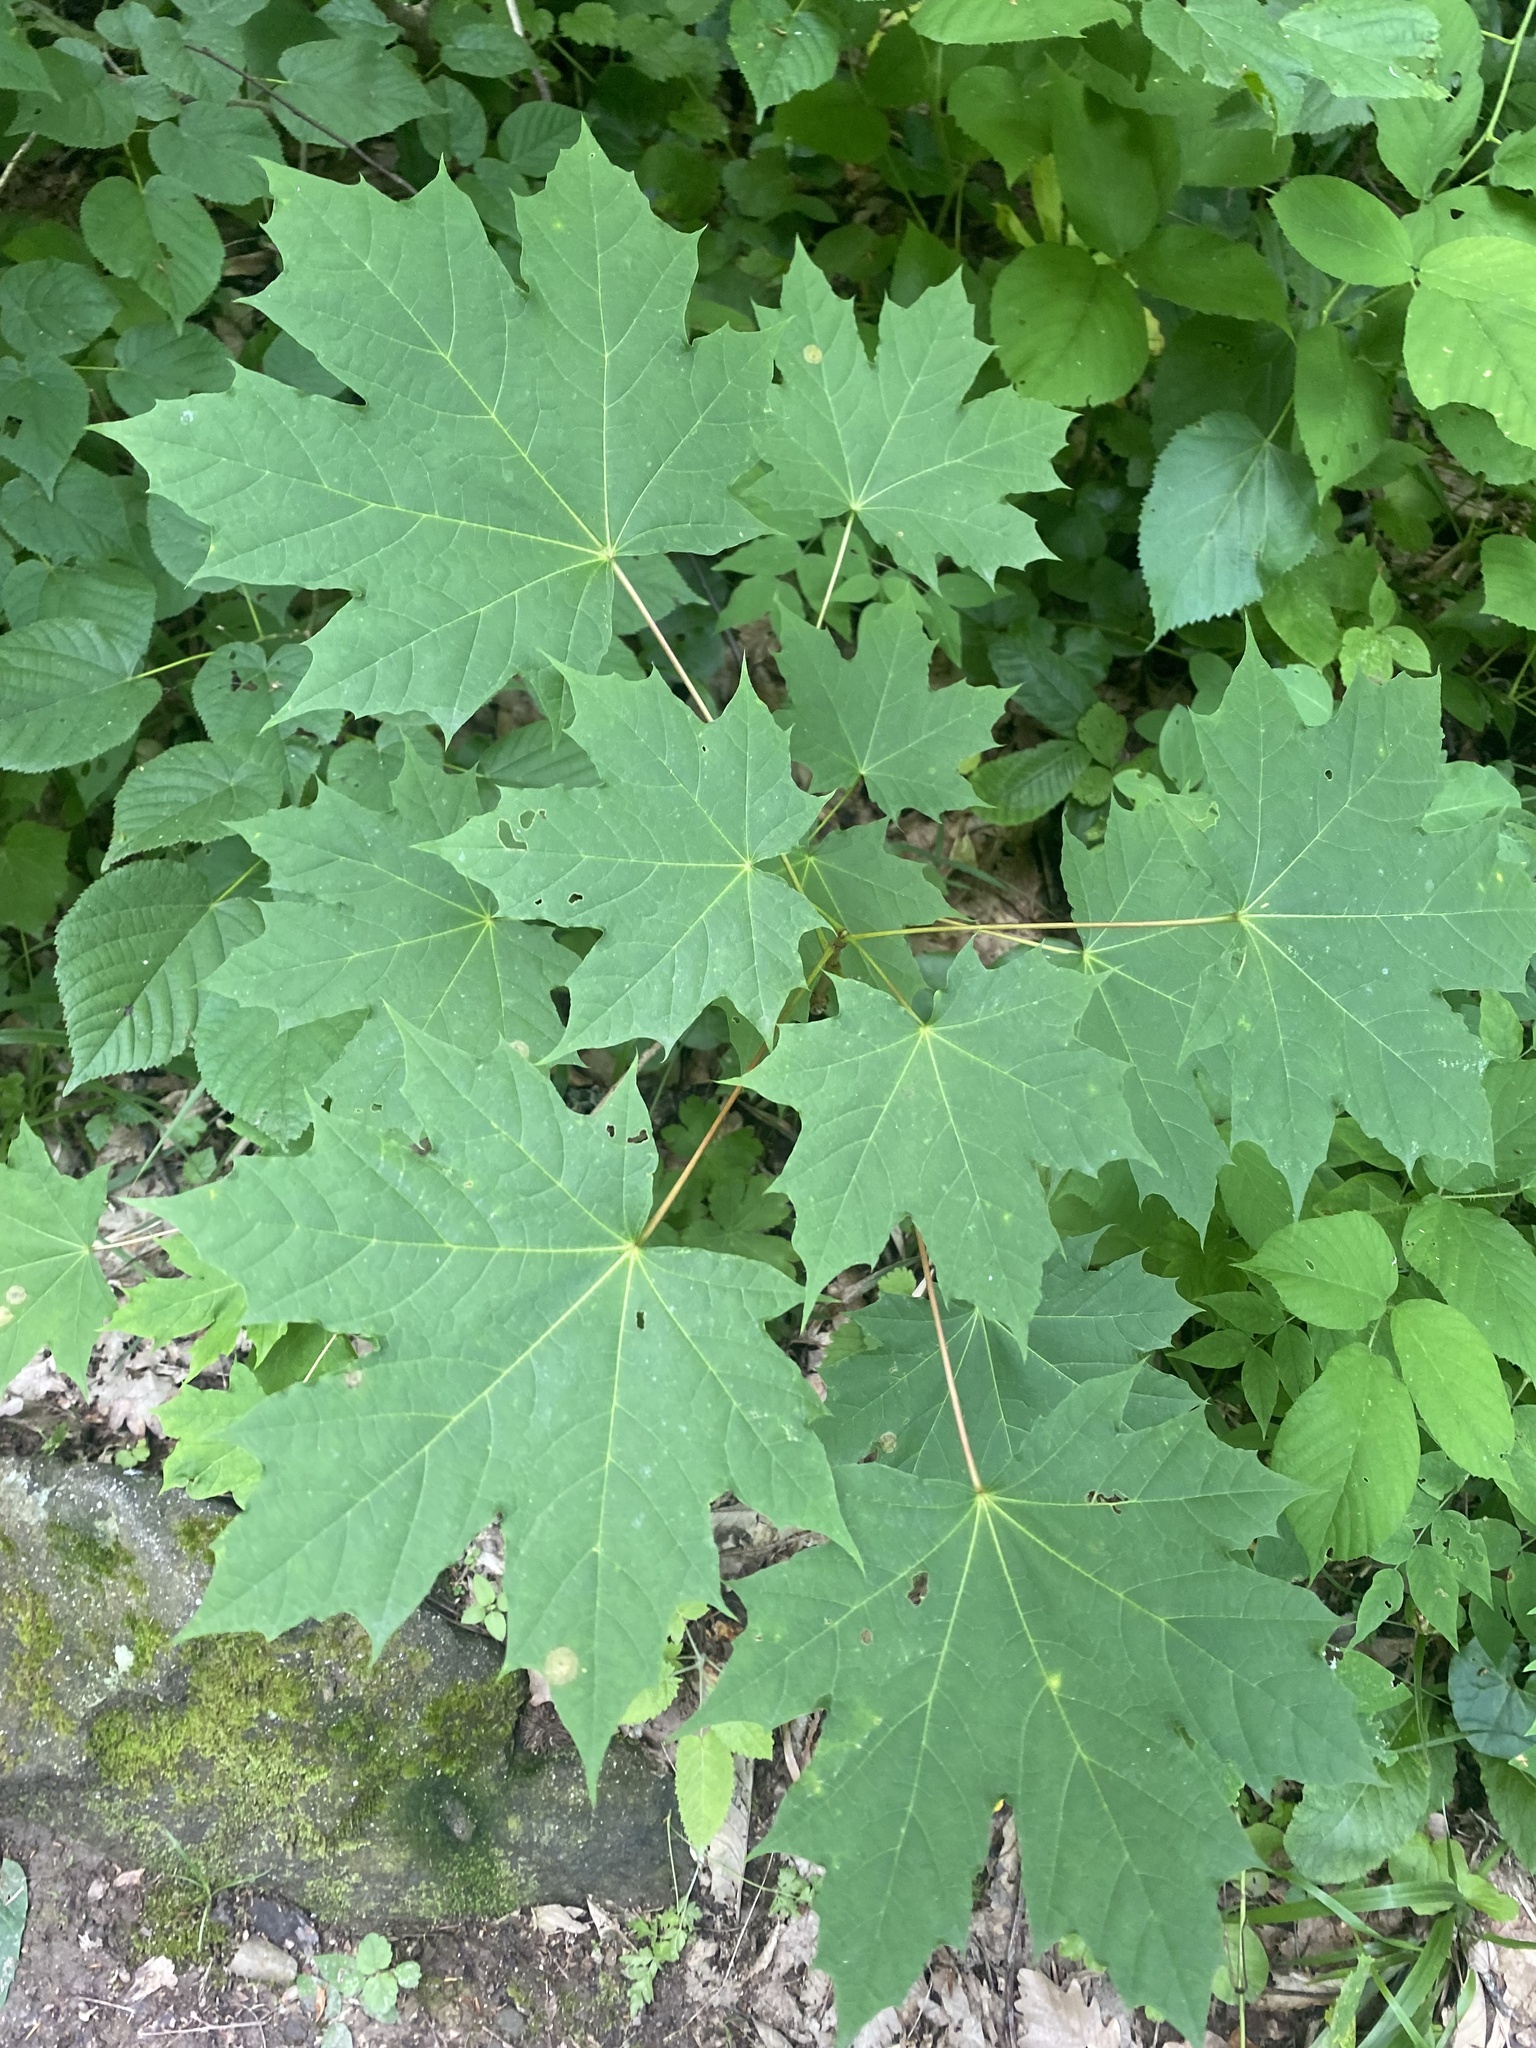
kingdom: Plantae
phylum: Tracheophyta
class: Magnoliopsida
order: Sapindales
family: Sapindaceae
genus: Acer
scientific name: Acer platanoides
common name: Norway maple
